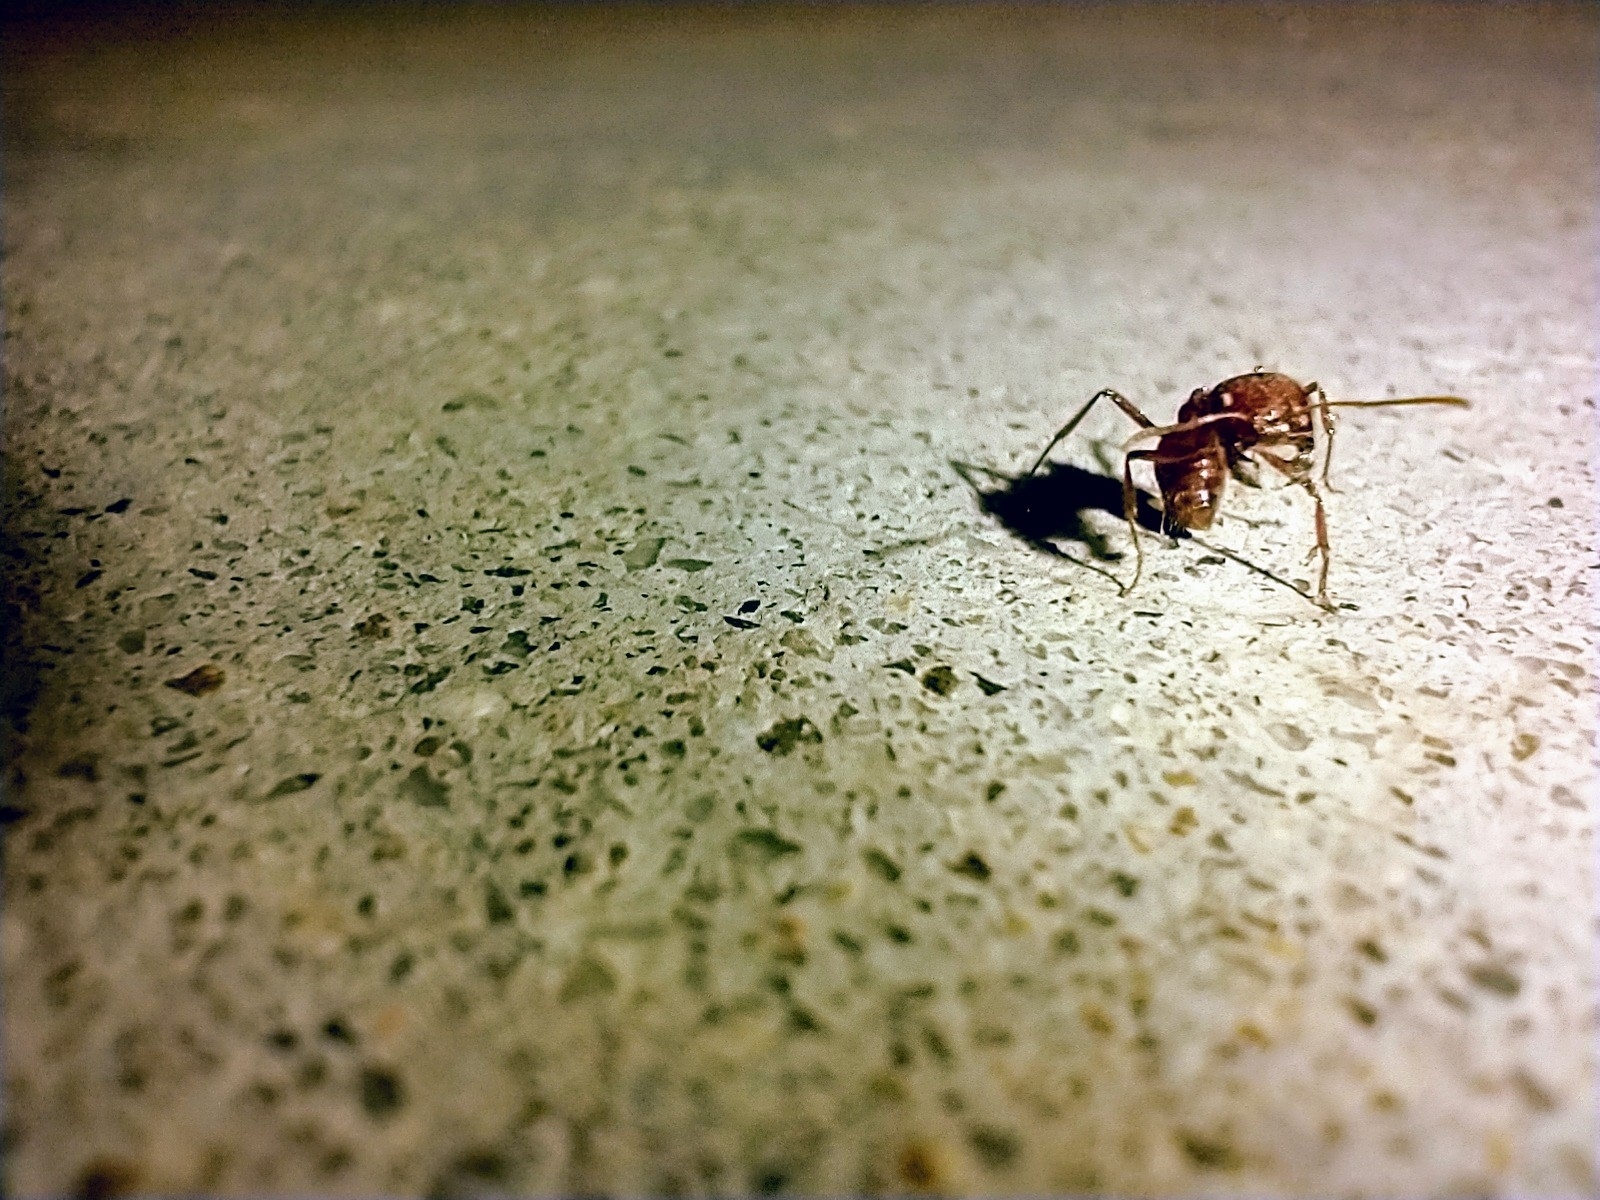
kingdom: Animalia
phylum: Arthropoda
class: Insecta
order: Hymenoptera
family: Formicidae
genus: Pogonomyrmex
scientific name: Pogonomyrmex
